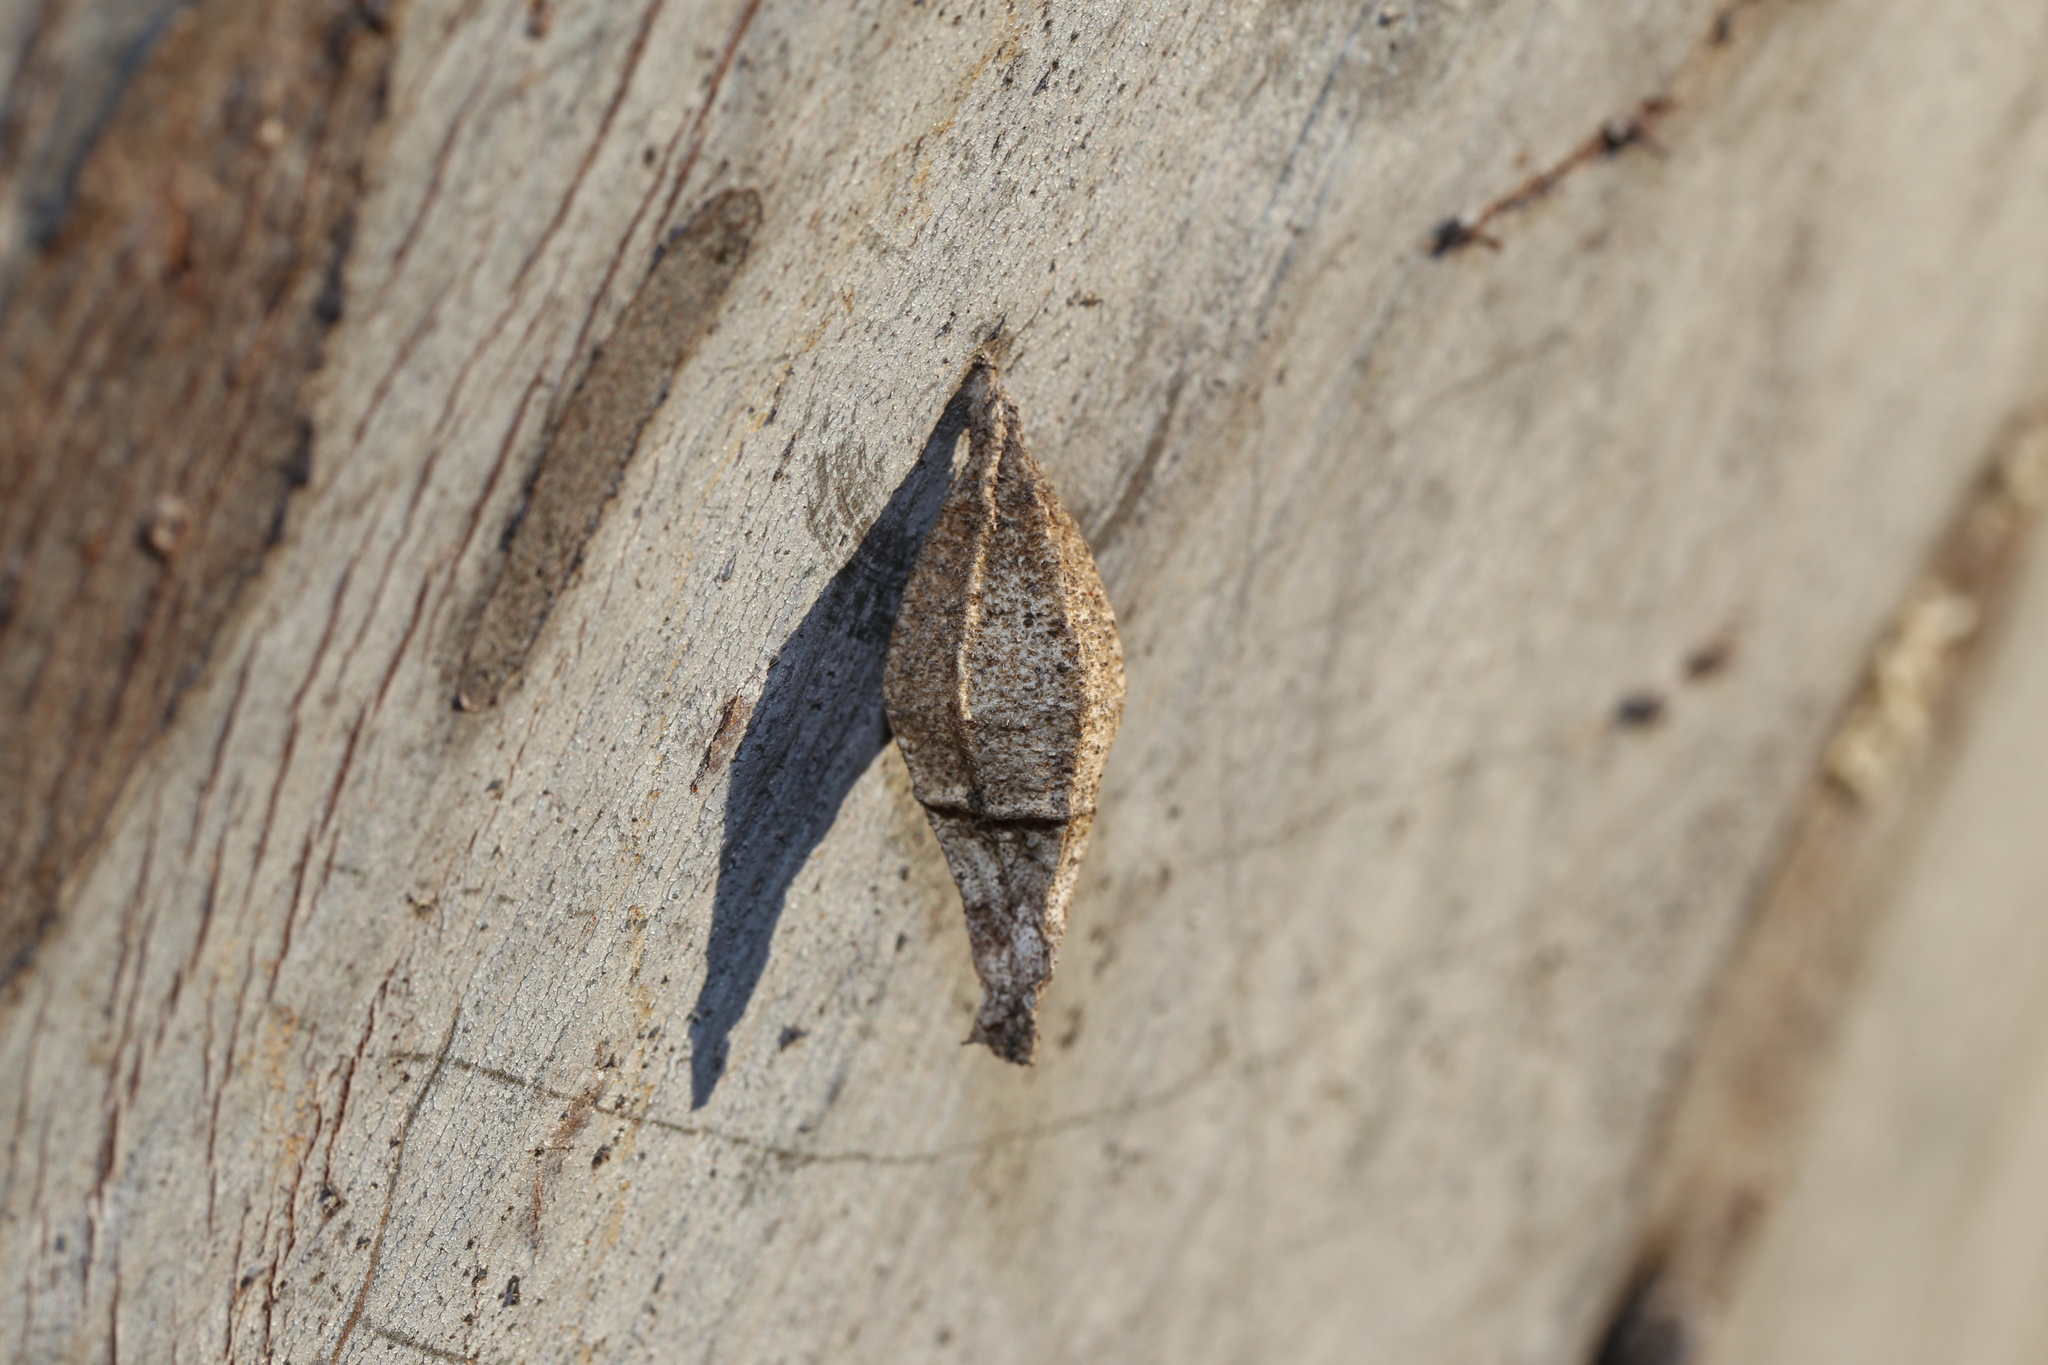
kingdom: Animalia
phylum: Arthropoda
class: Insecta
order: Lepidoptera
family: Psychidae
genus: Hyalarcta
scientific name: Hyalarcta nigrescens
